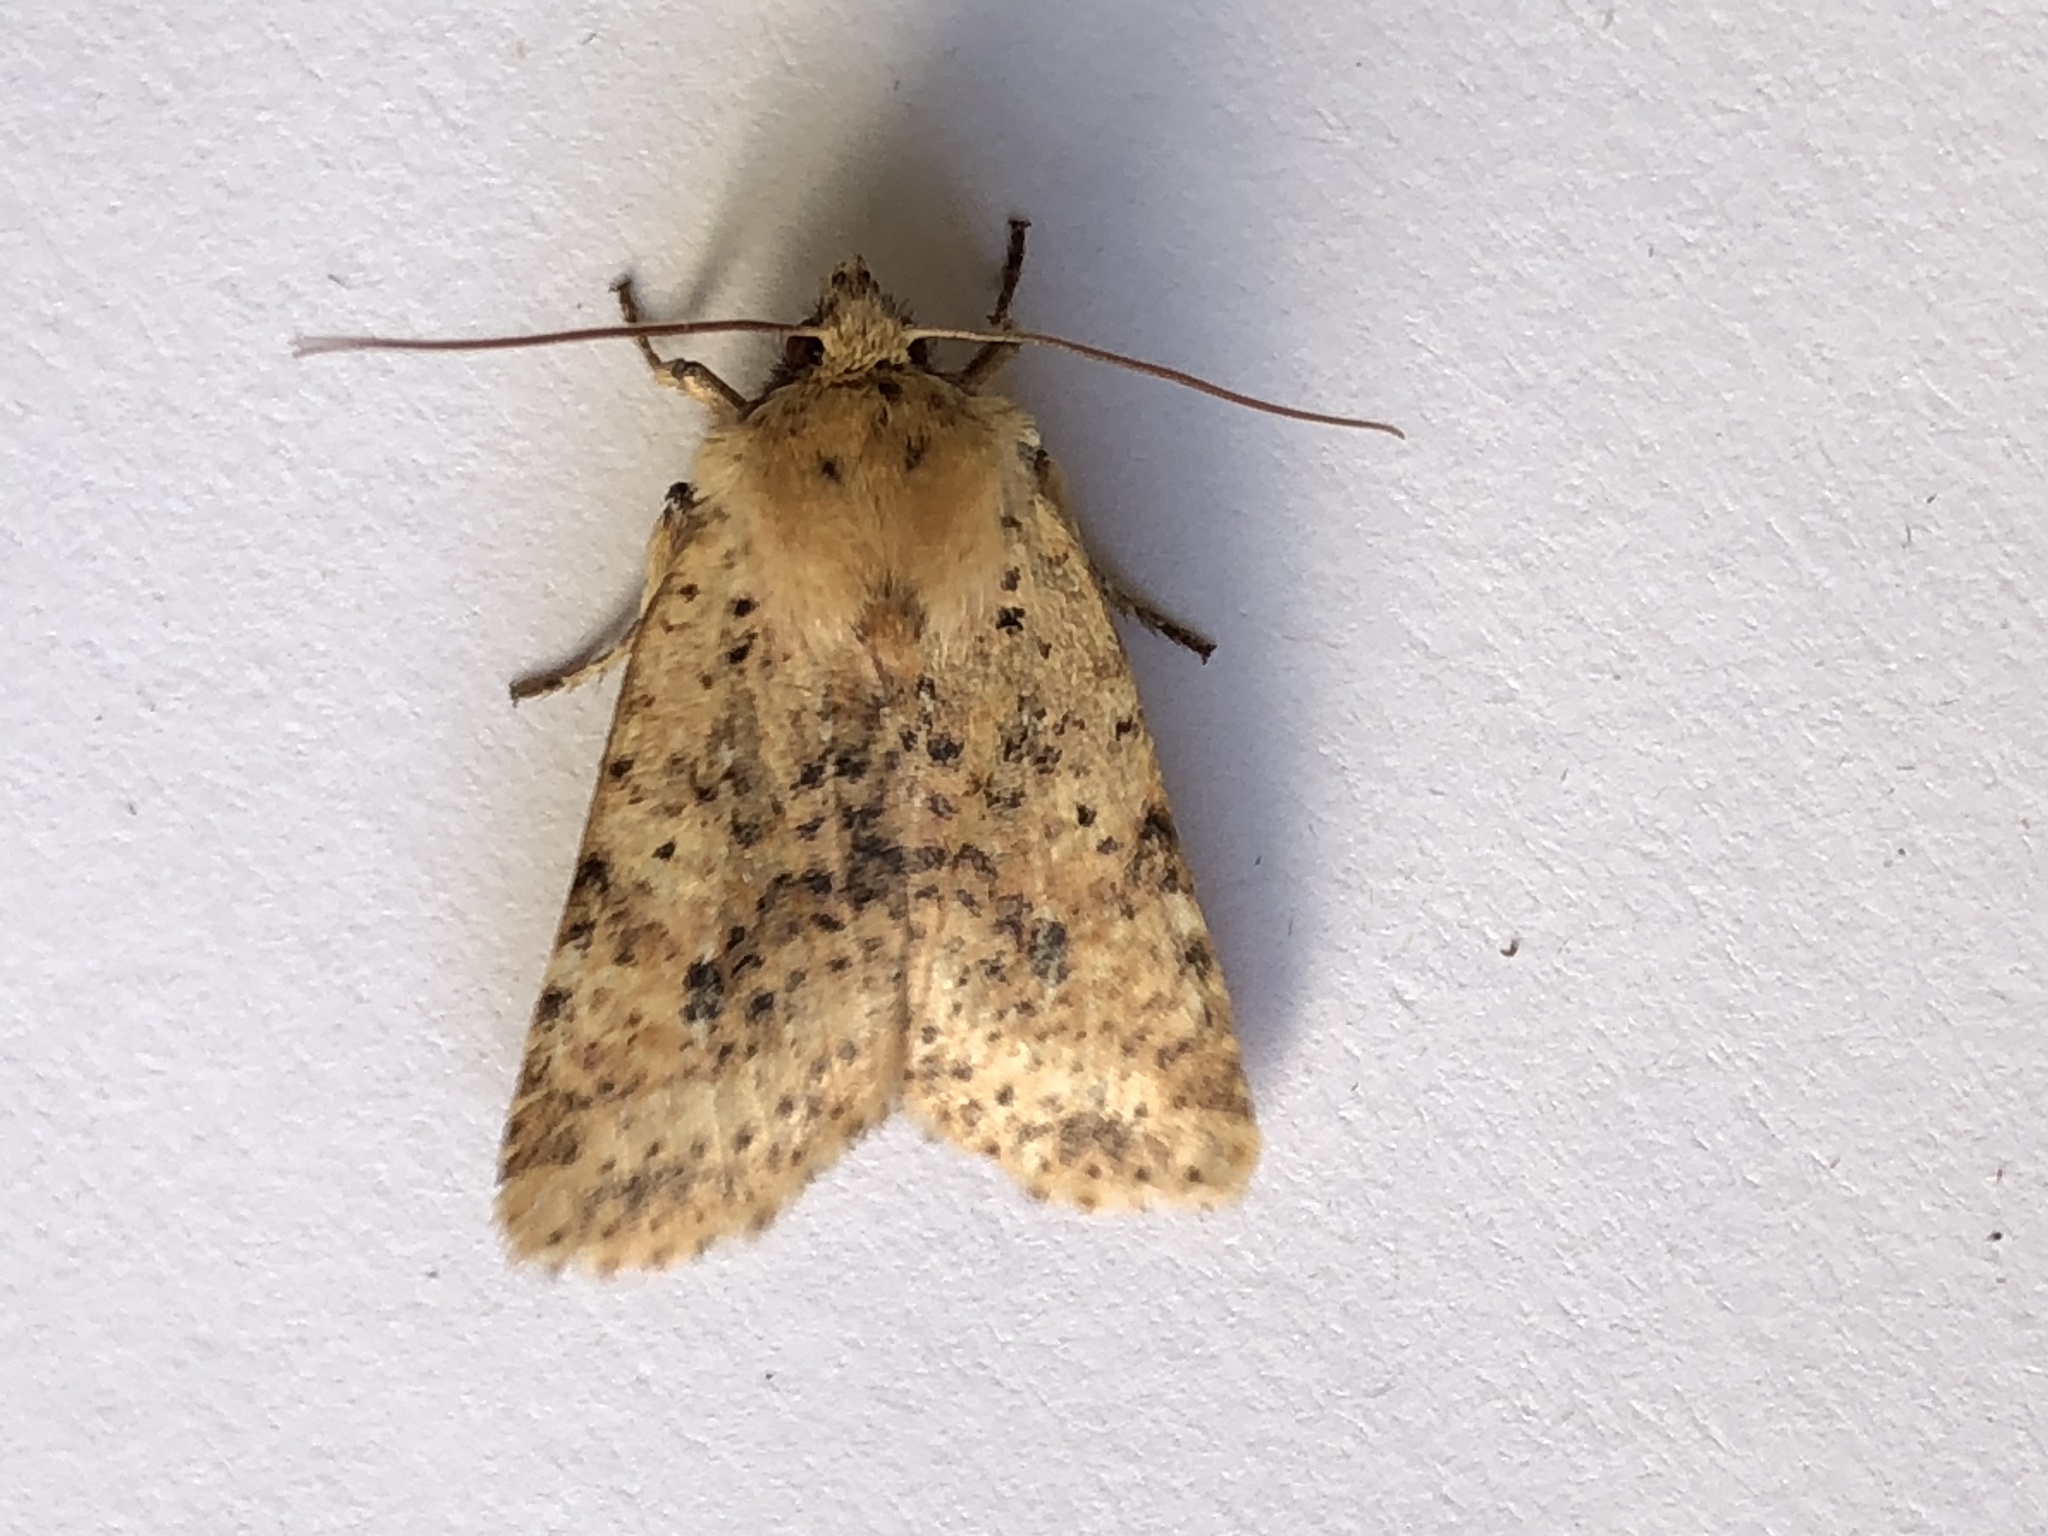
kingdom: Animalia
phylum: Arthropoda
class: Insecta
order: Lepidoptera
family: Noctuidae
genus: Conistra
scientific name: Conistra rubiginea
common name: Dotted chestnut
